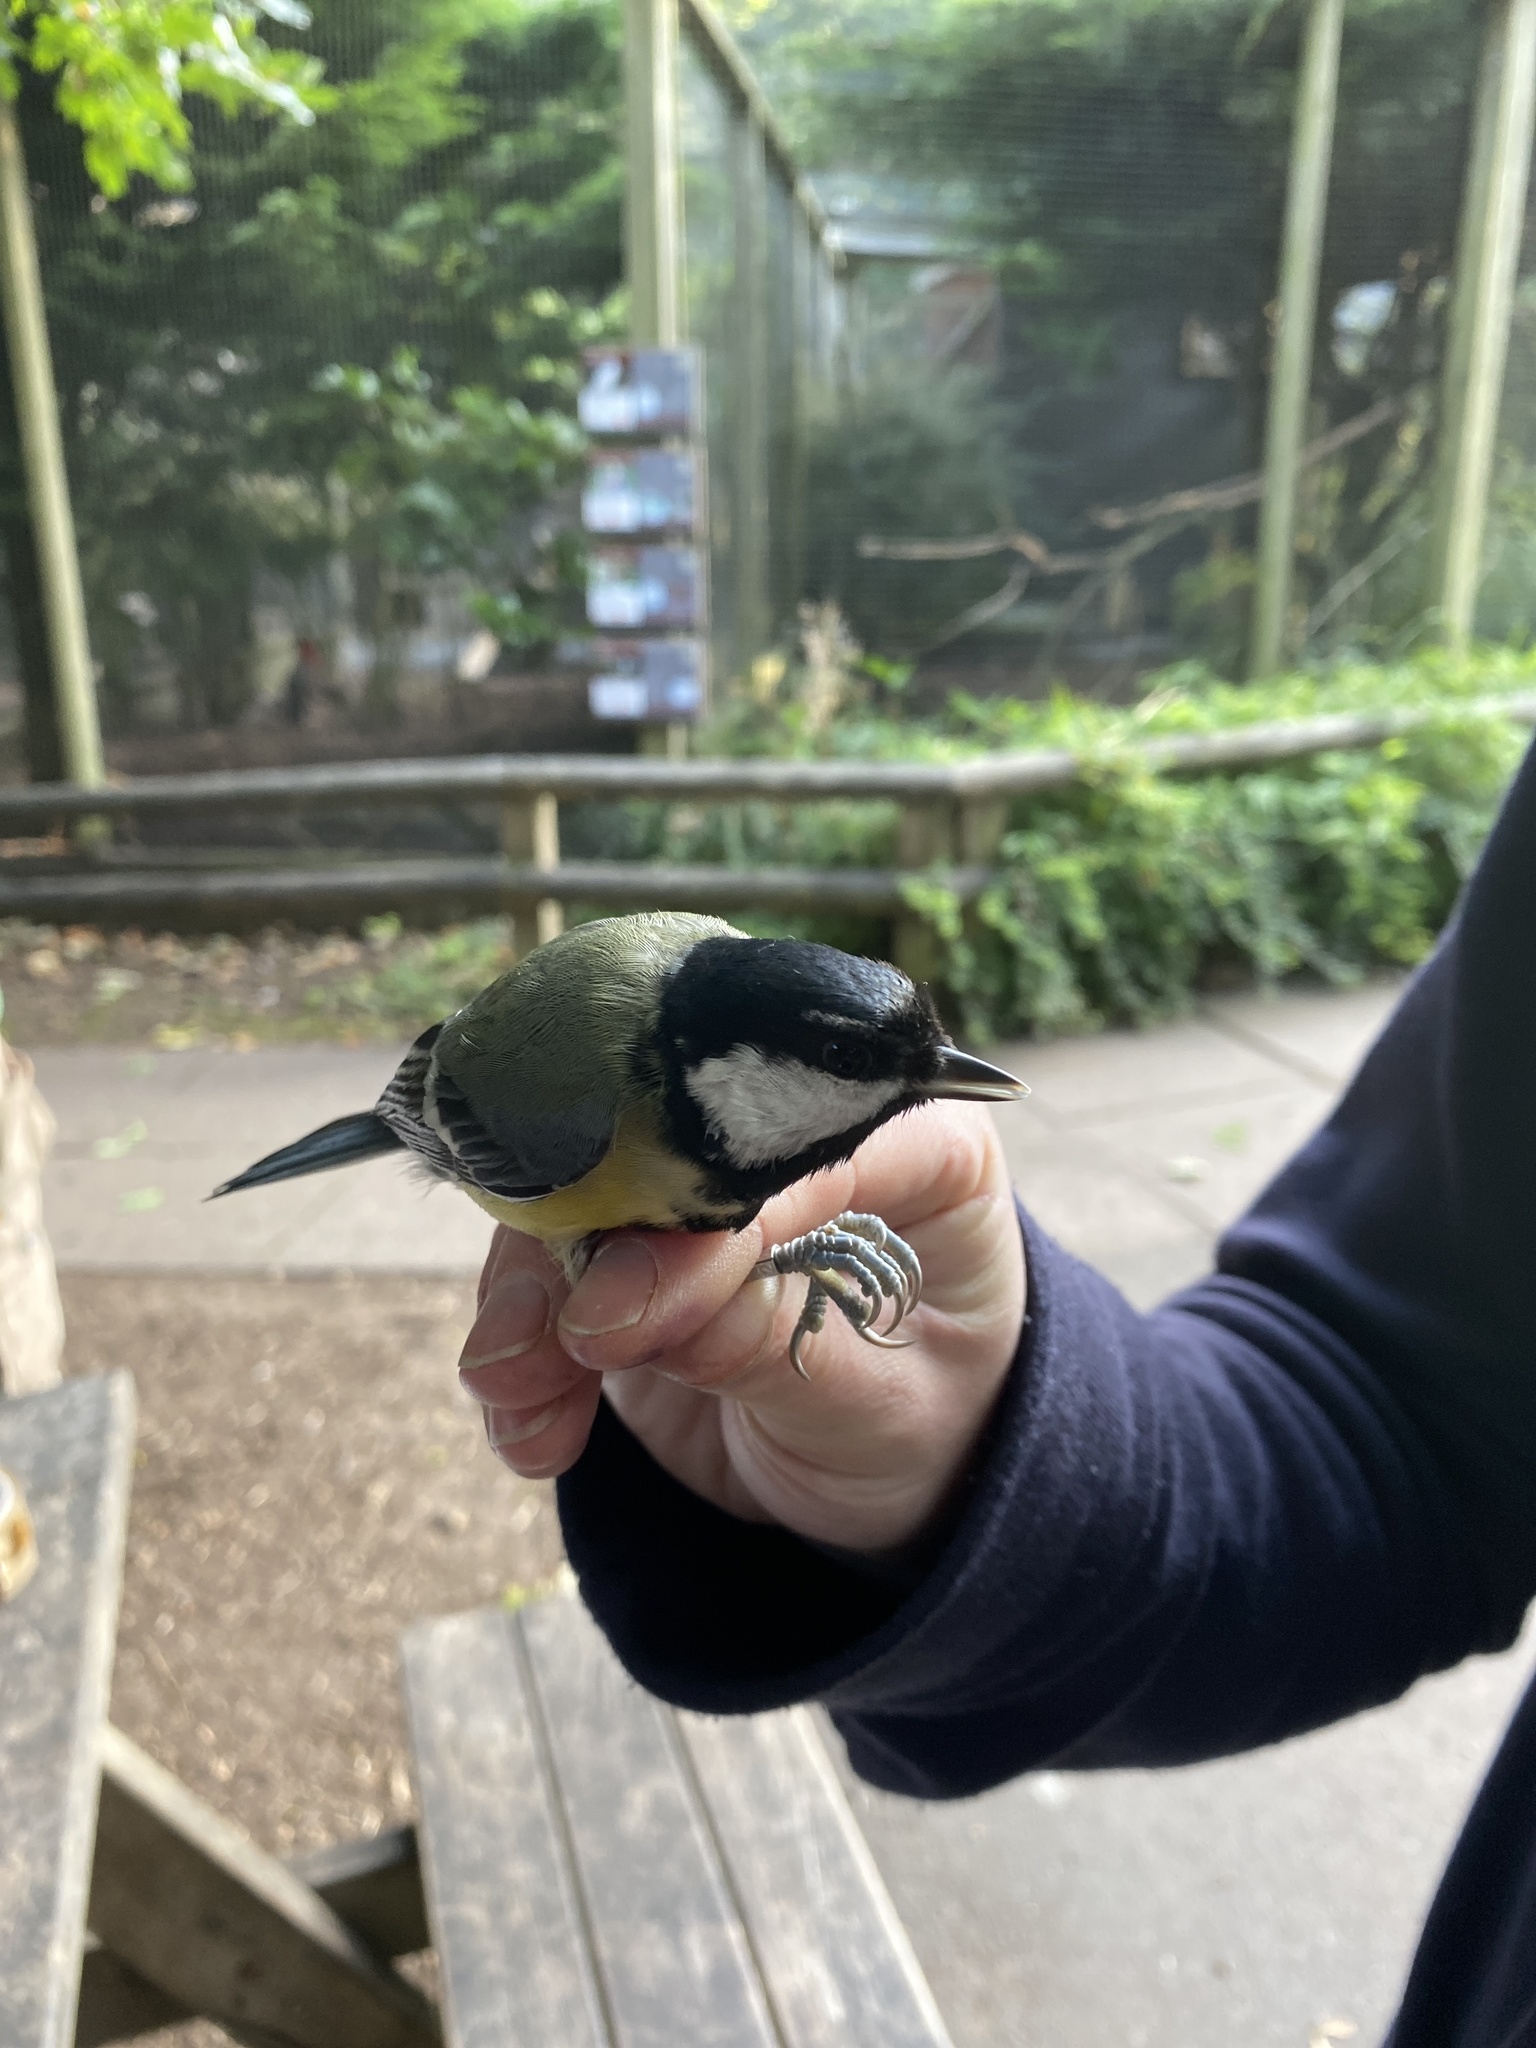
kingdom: Animalia
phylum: Chordata
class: Aves
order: Passeriformes
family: Paridae
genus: Parus
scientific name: Parus major
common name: Great tit
